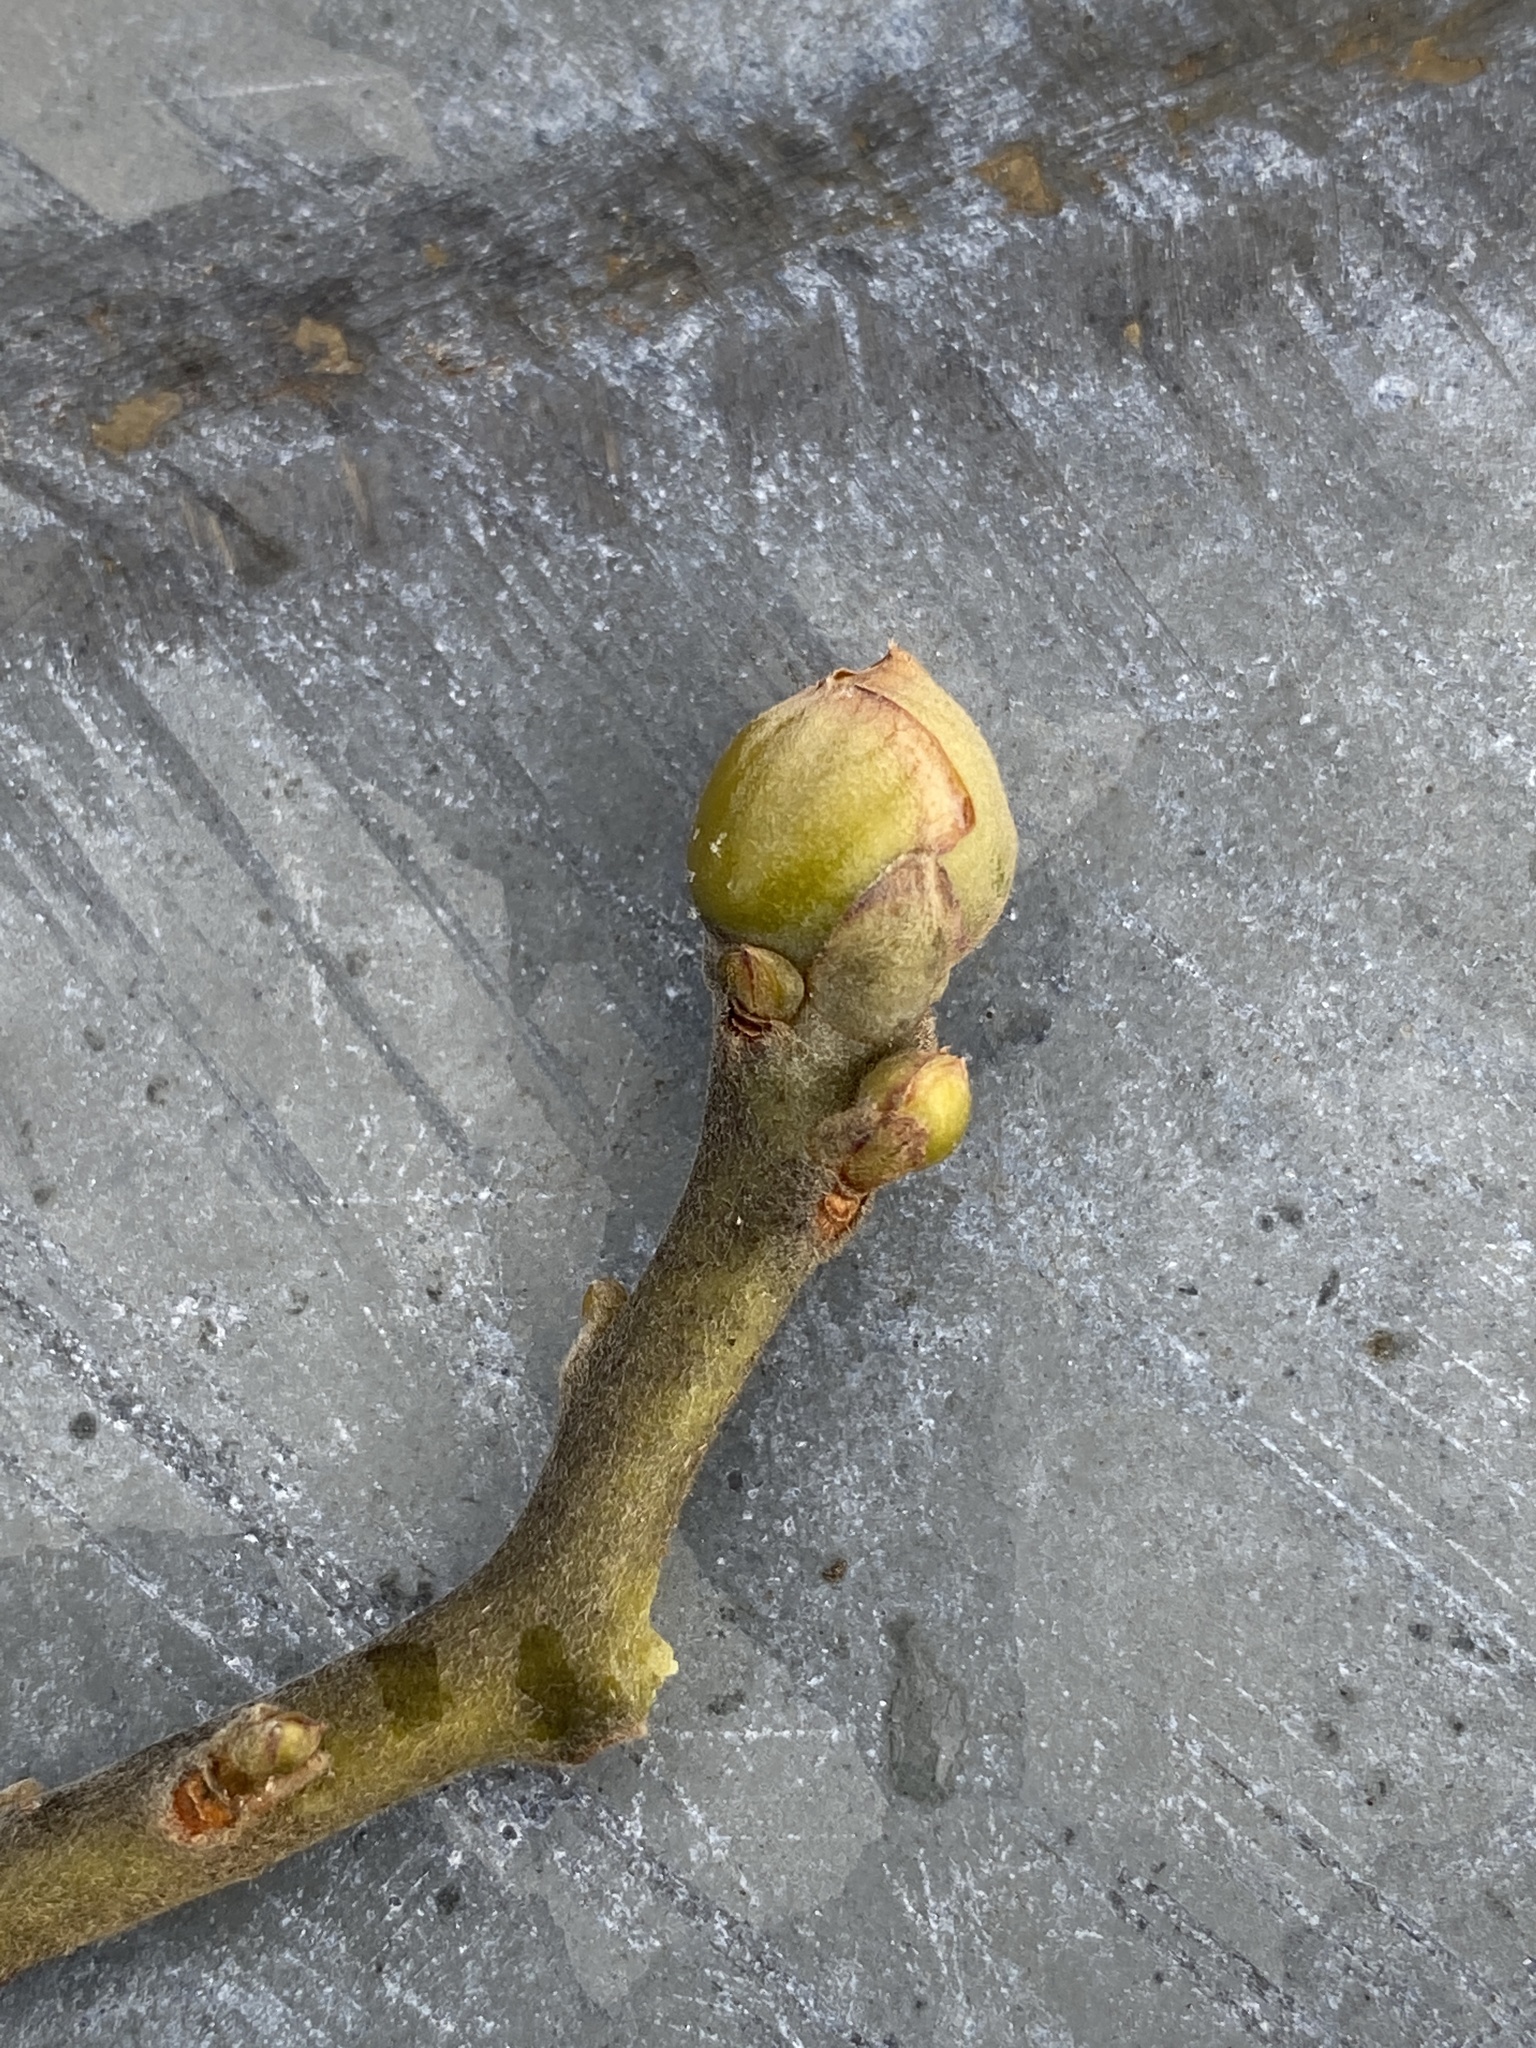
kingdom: Plantae
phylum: Tracheophyta
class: Magnoliopsida
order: Laurales
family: Lauraceae
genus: Sassafras
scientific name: Sassafras albidum
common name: Sassafras
